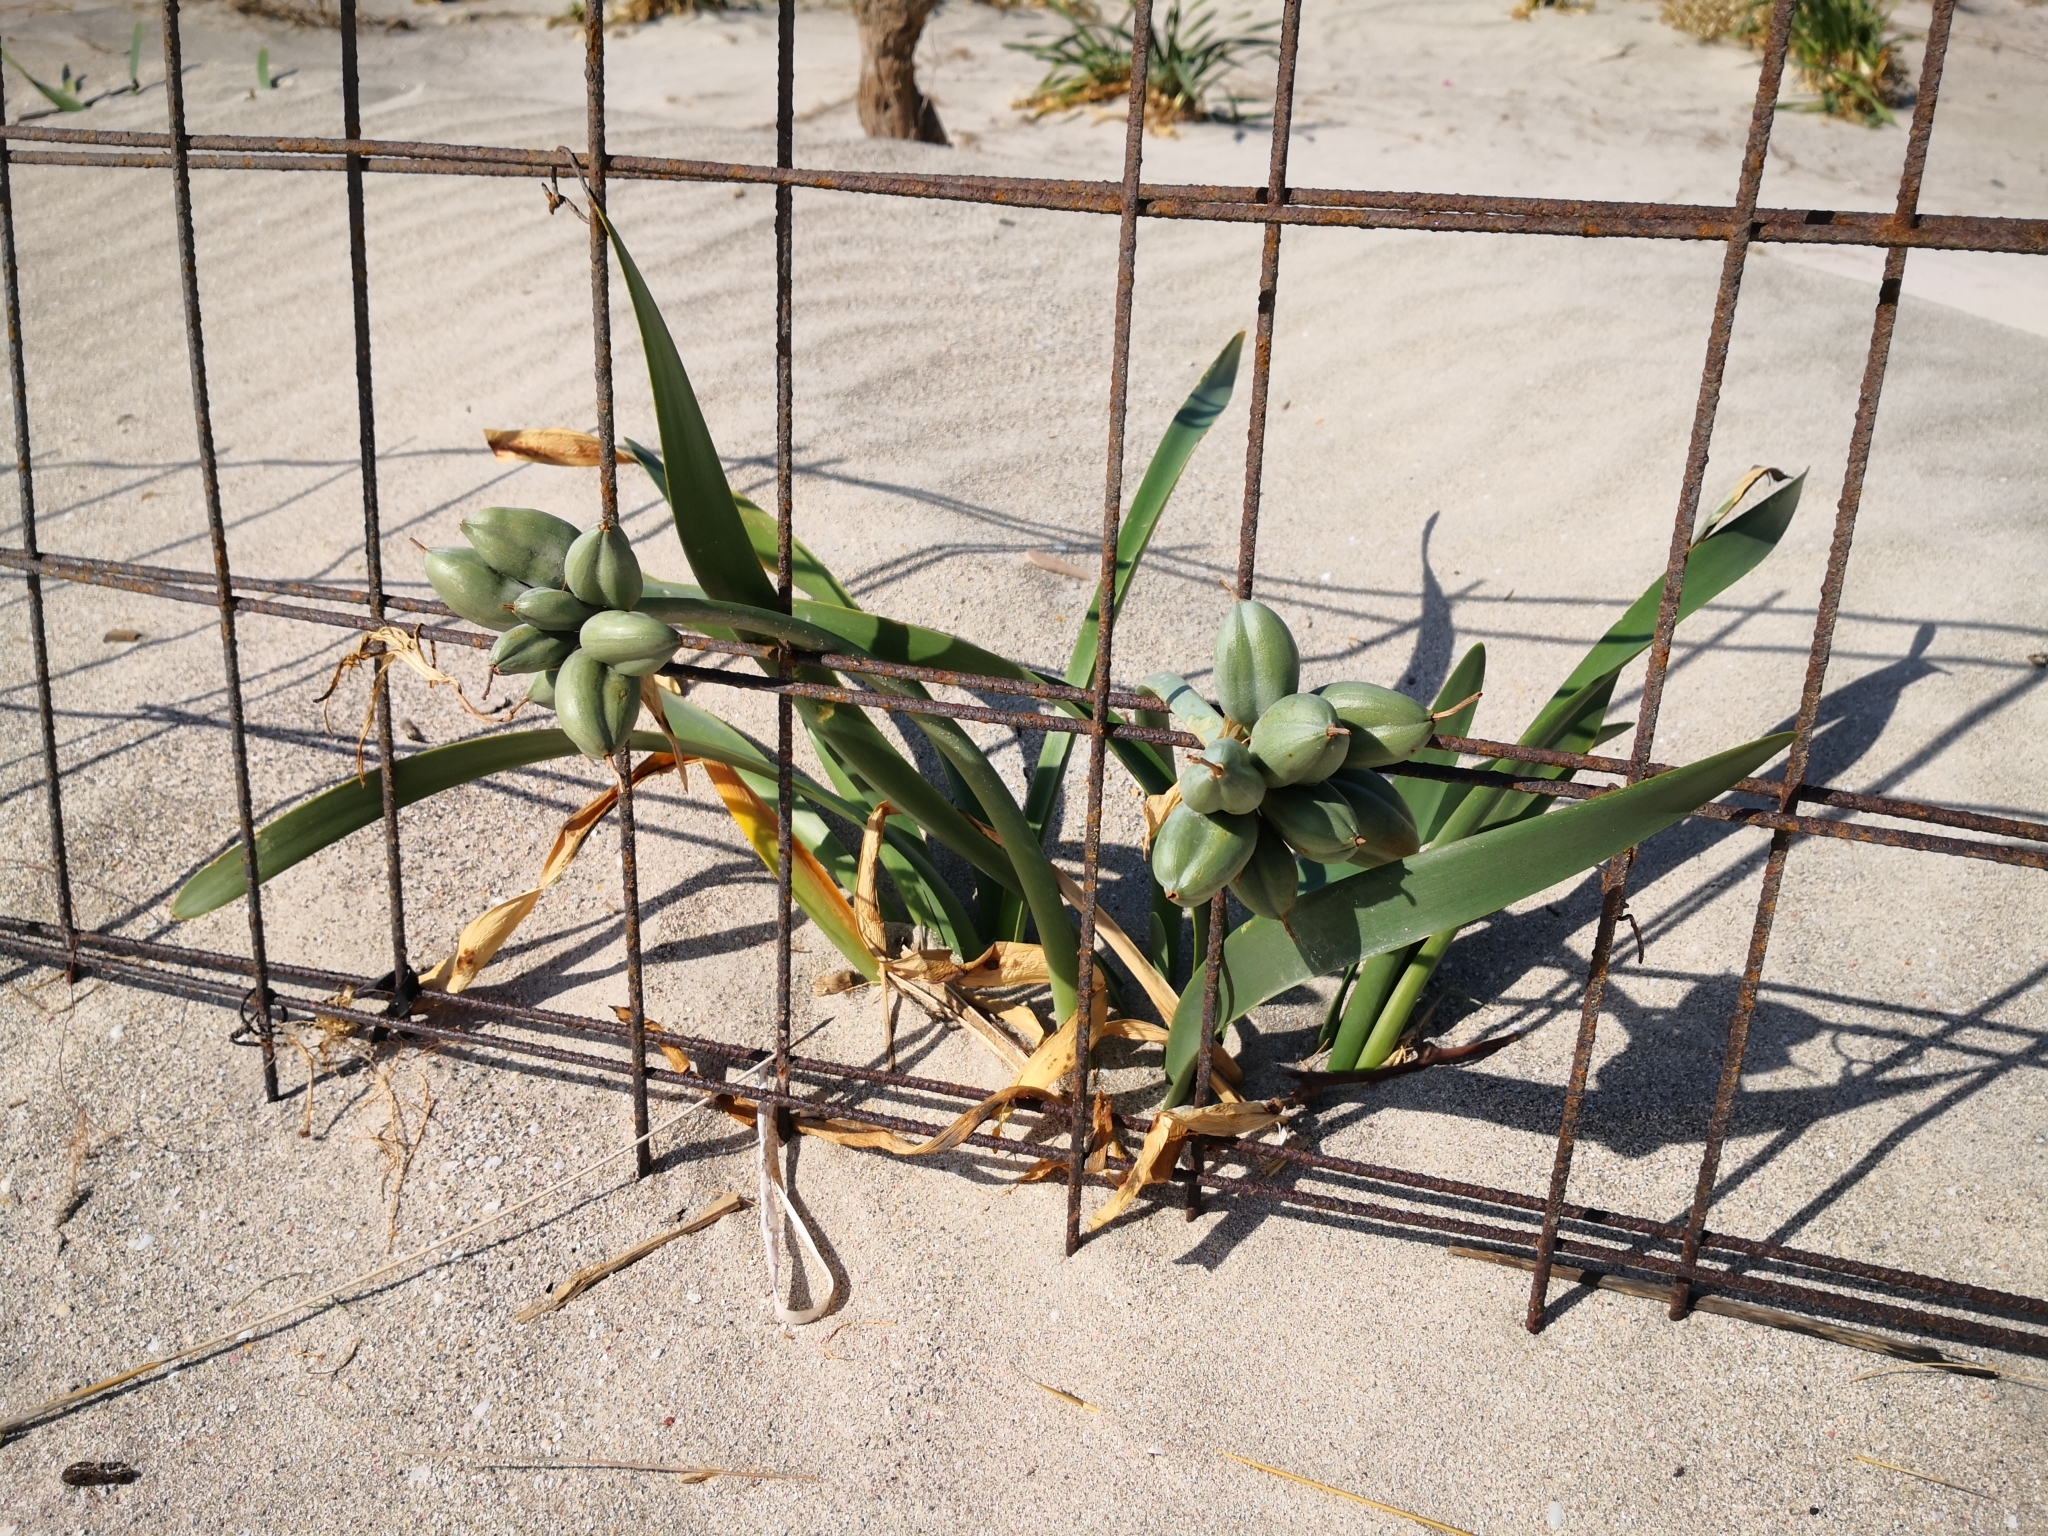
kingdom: Plantae
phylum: Tracheophyta
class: Liliopsida
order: Asparagales
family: Amaryllidaceae
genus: Pancratium
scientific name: Pancratium maritimum
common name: Sea-daffodil
